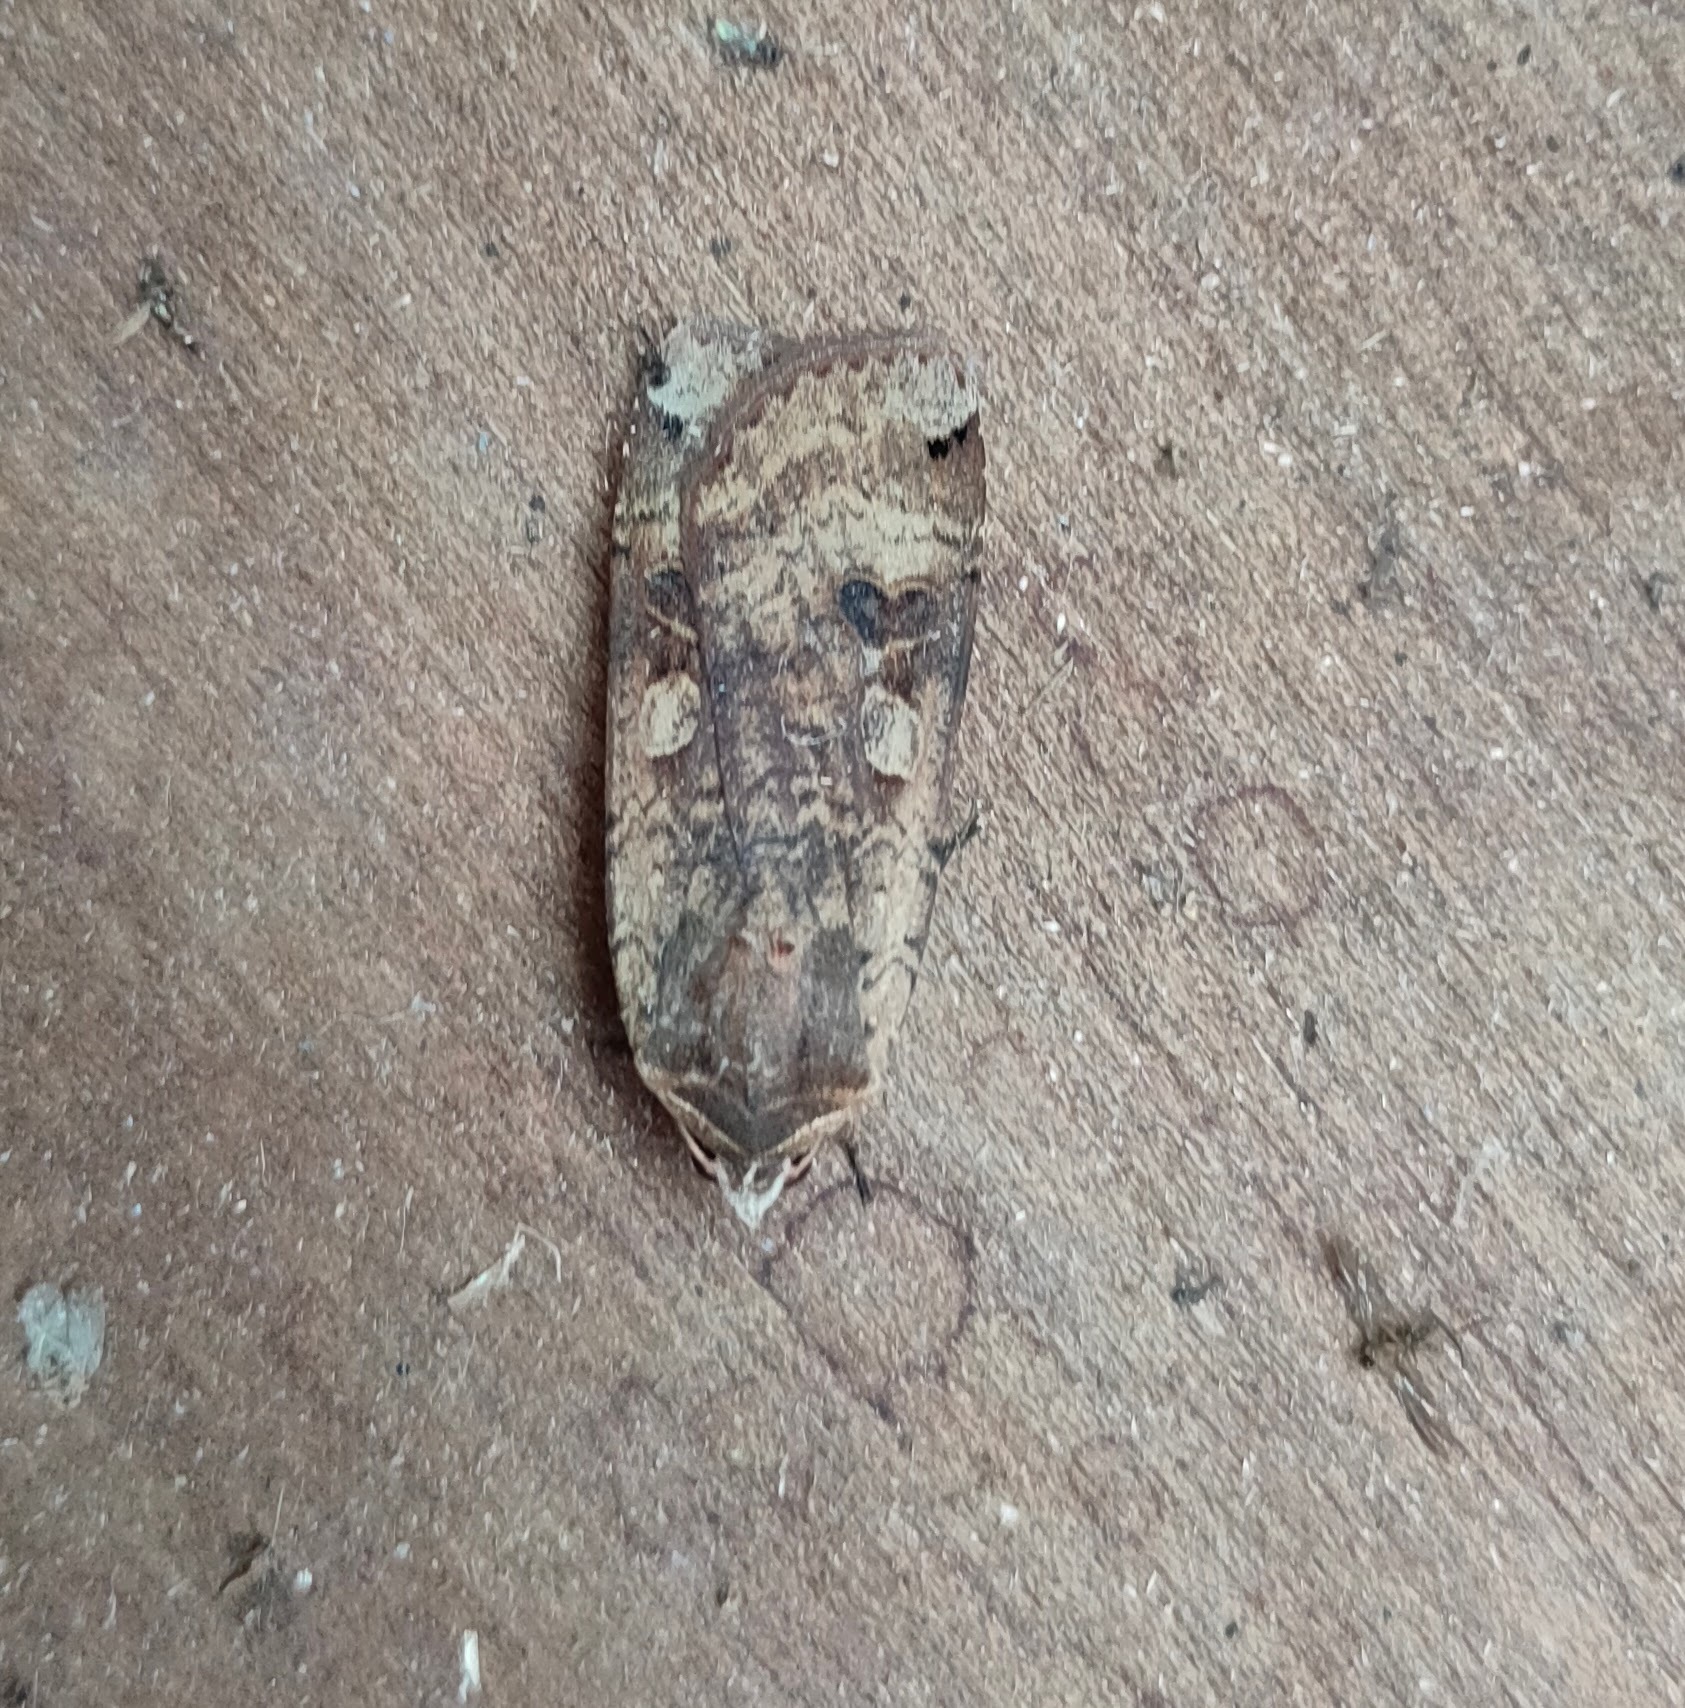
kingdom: Animalia
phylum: Arthropoda
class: Insecta
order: Lepidoptera
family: Noctuidae
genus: Noctua
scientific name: Noctua pronuba
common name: Large yellow underwing
